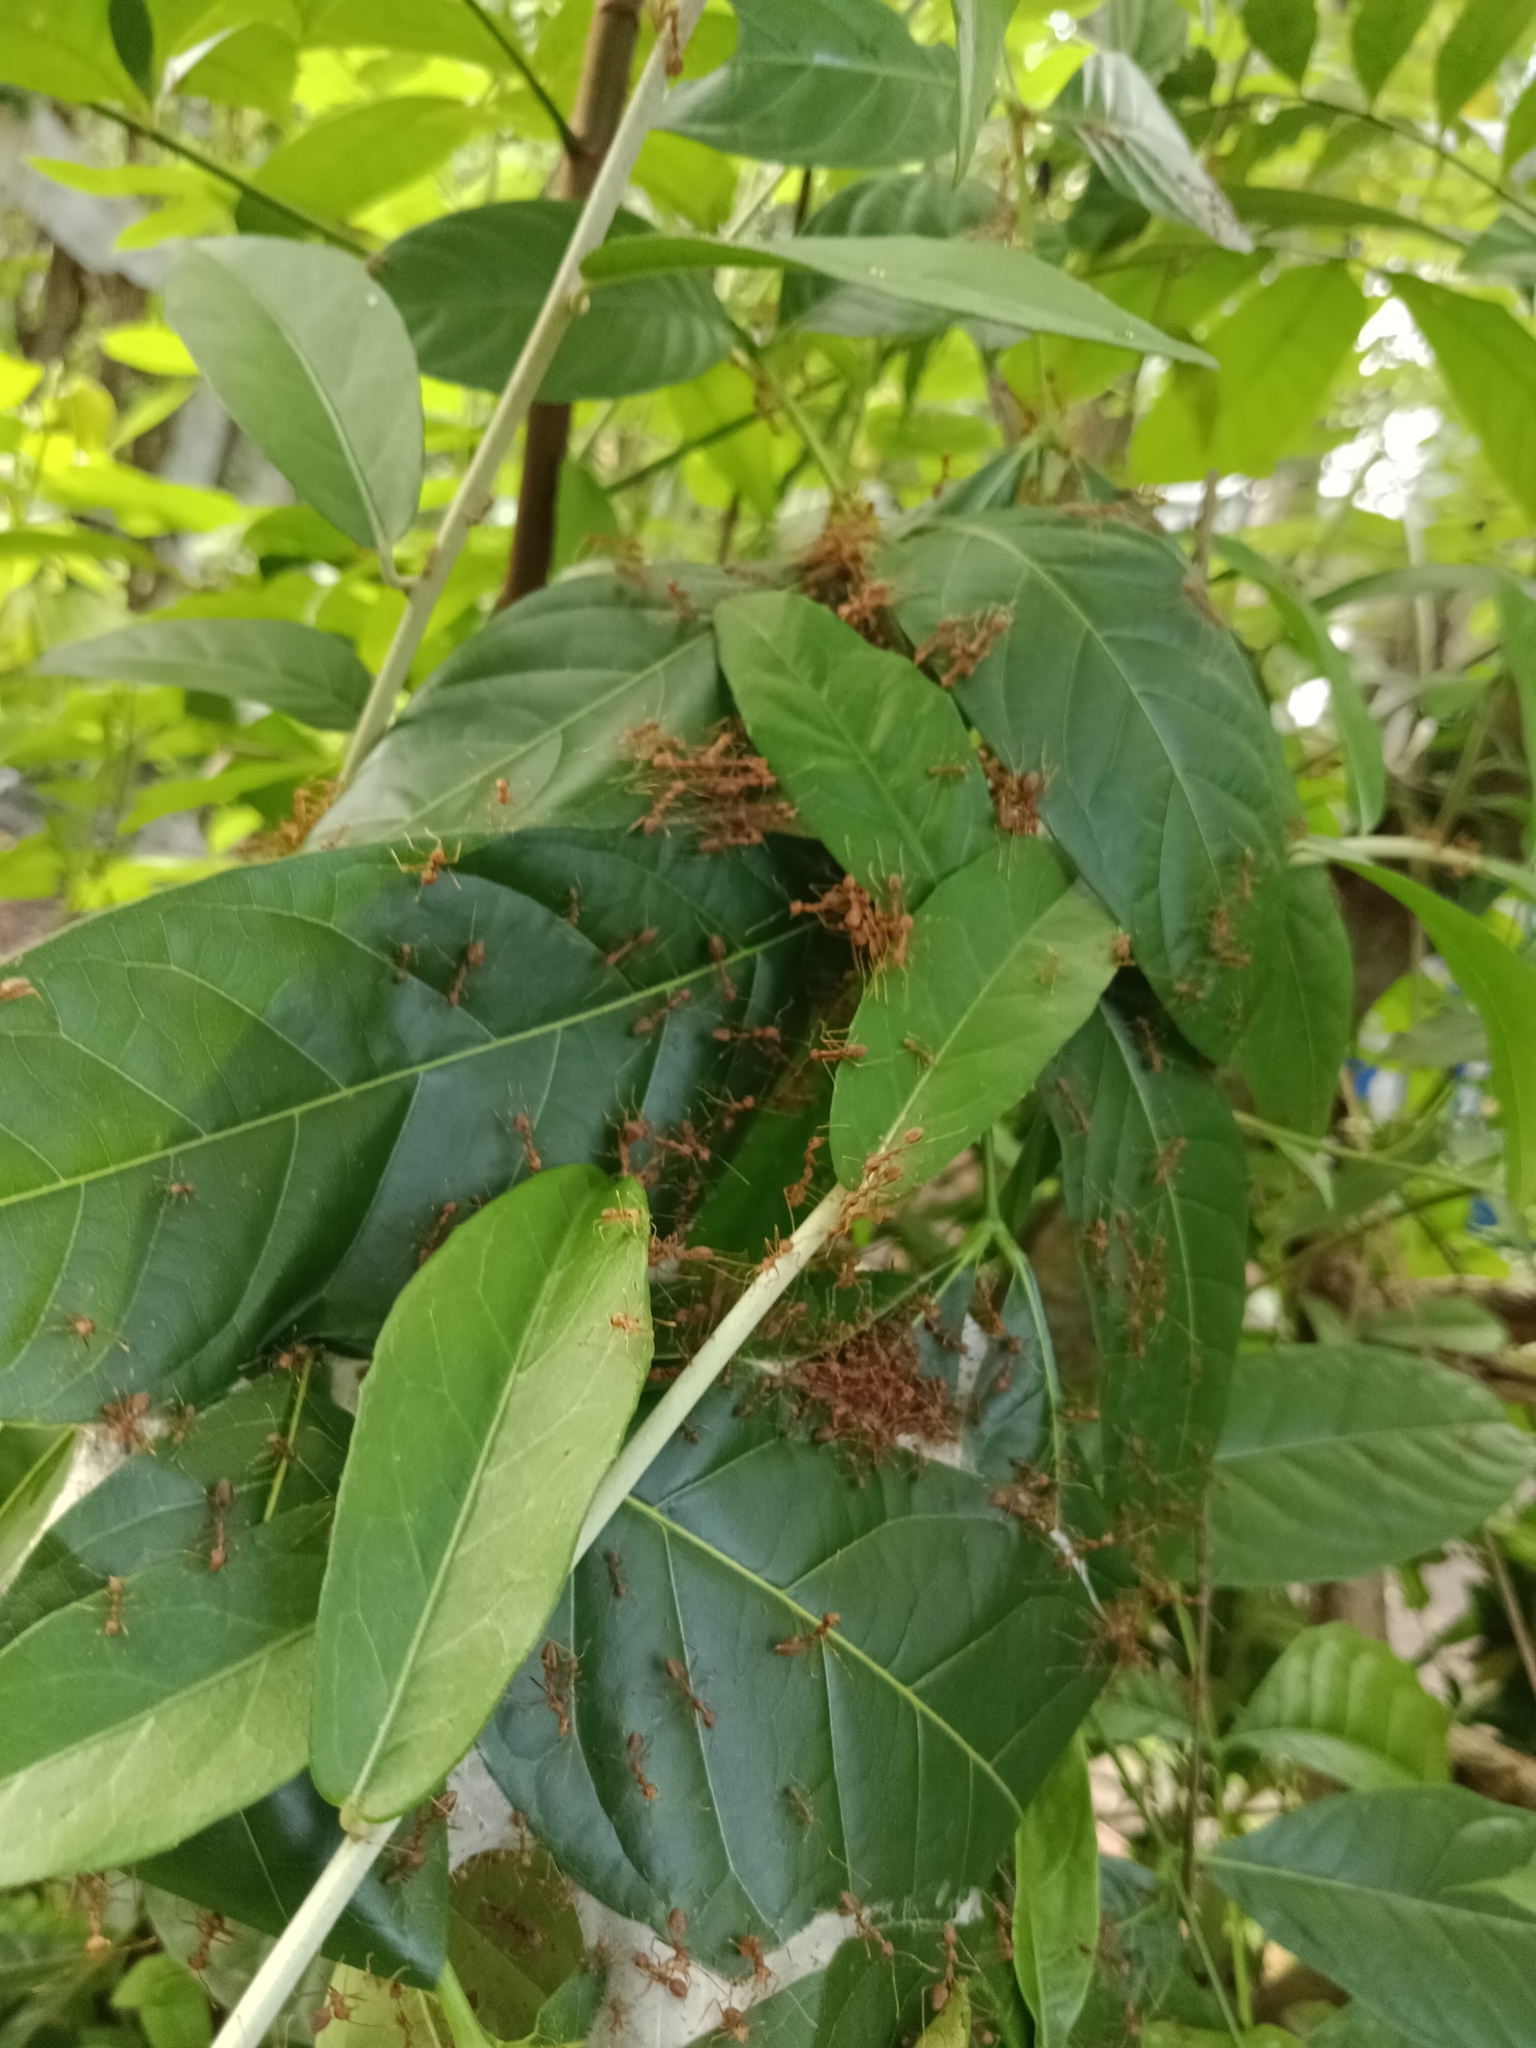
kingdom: Animalia
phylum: Arthropoda
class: Insecta
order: Hymenoptera
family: Formicidae
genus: Oecophylla
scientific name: Oecophylla smaragdina
